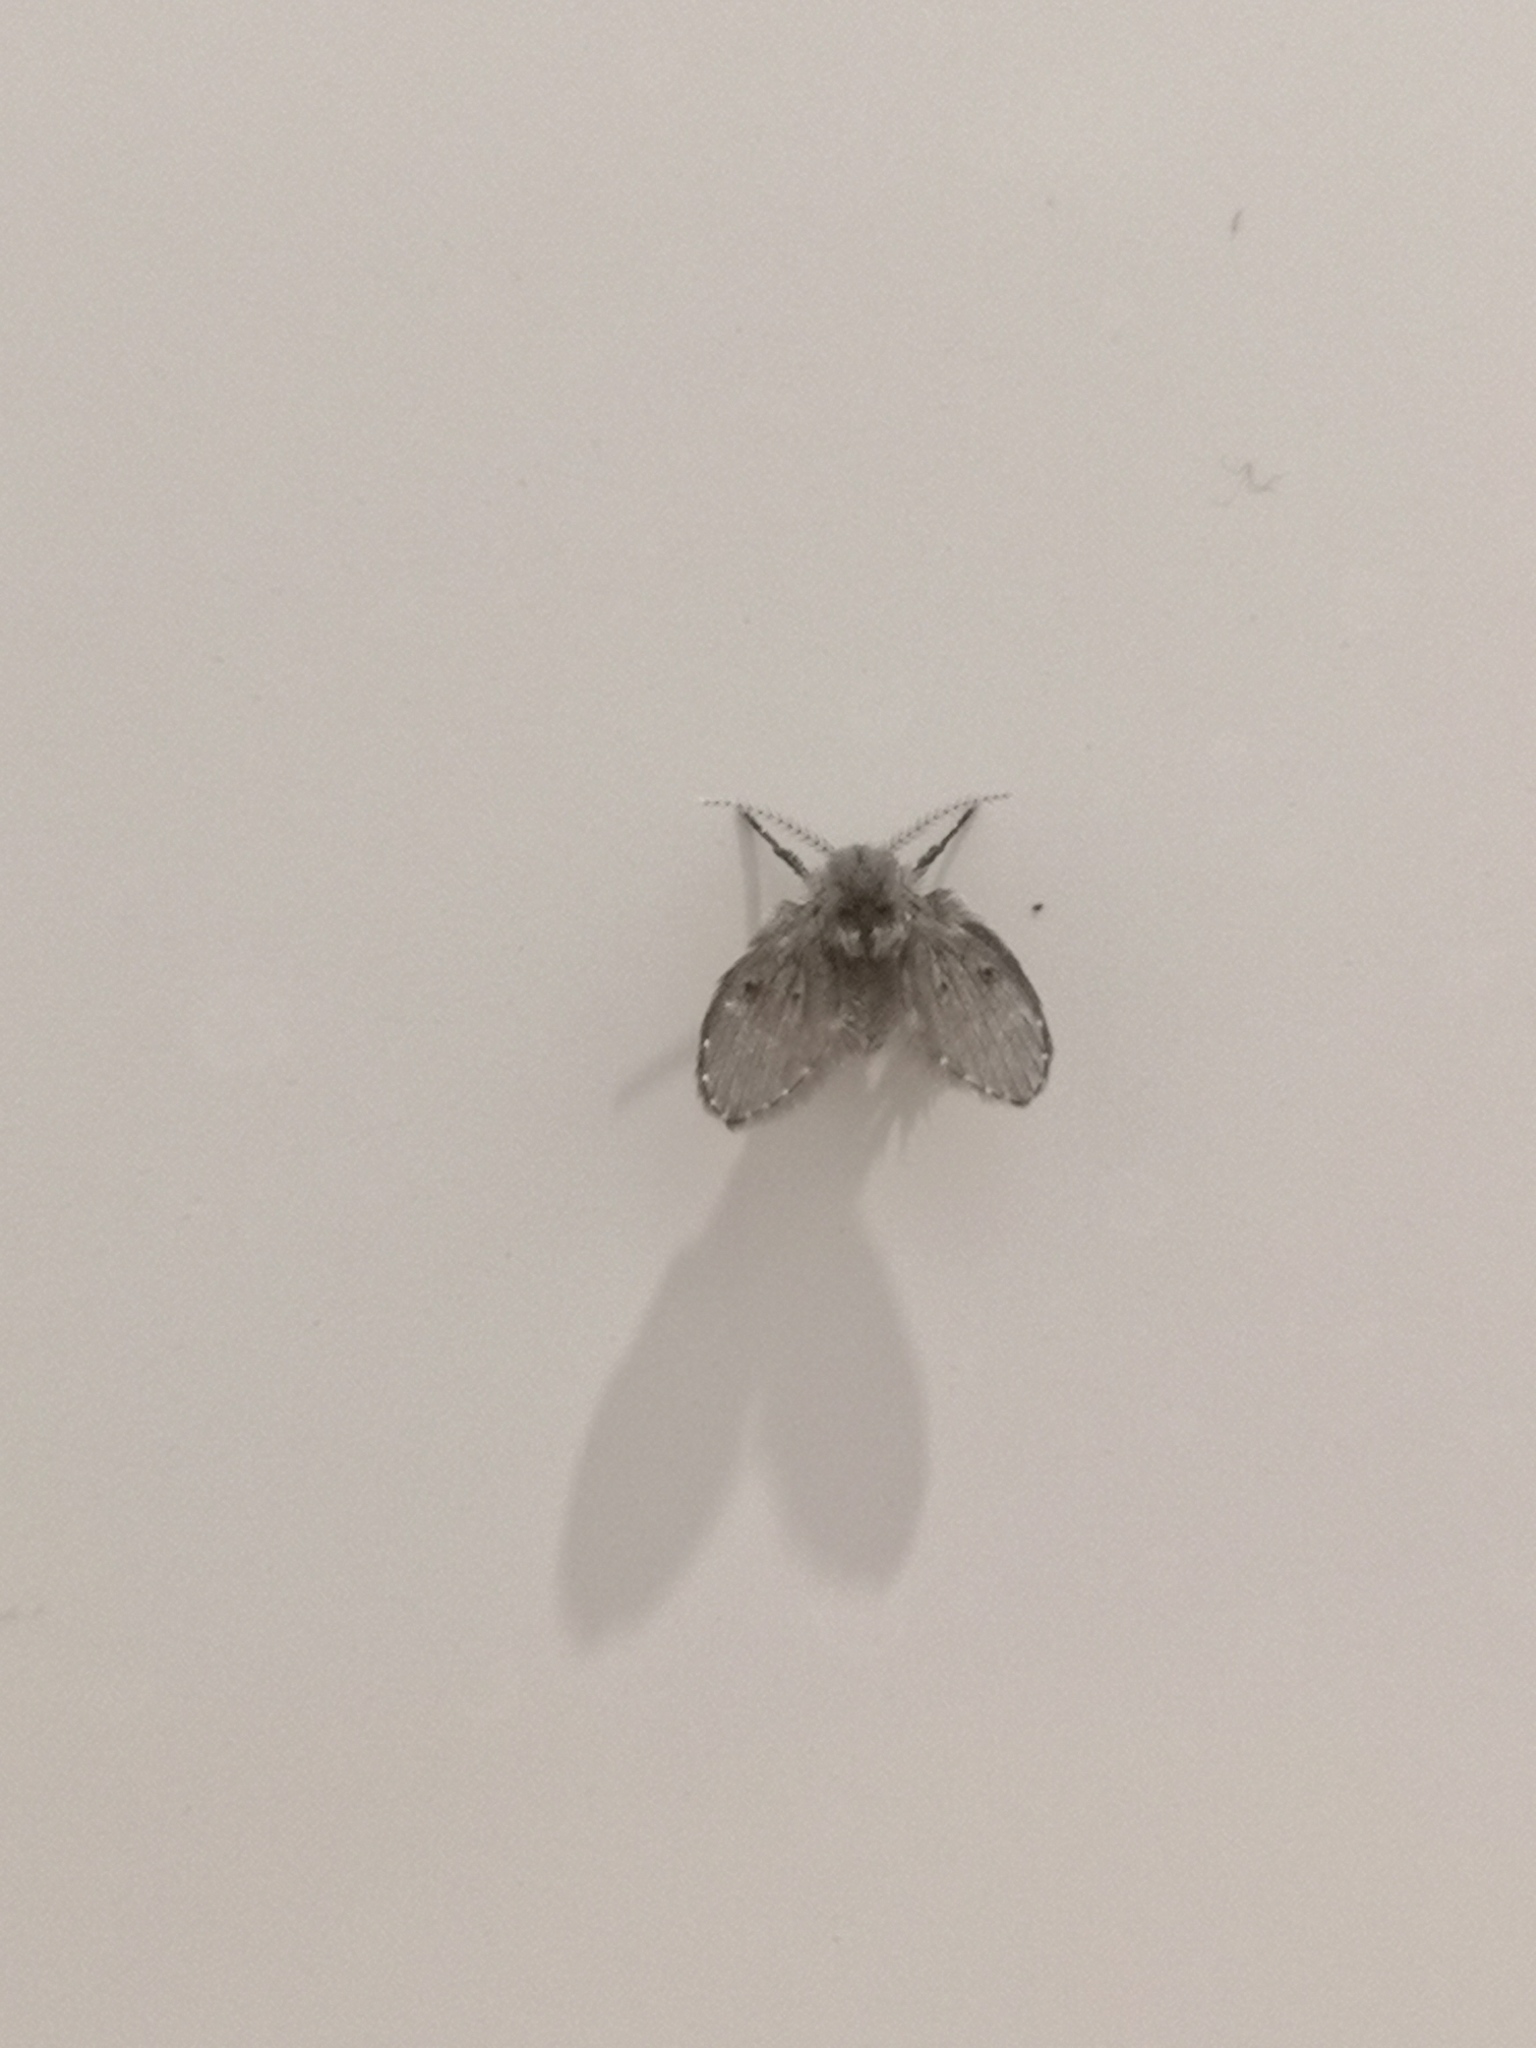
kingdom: Animalia
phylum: Arthropoda
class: Insecta
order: Diptera
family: Psychodidae
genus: Clogmia
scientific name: Clogmia albipunctatus
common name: White-spotted moth fly
